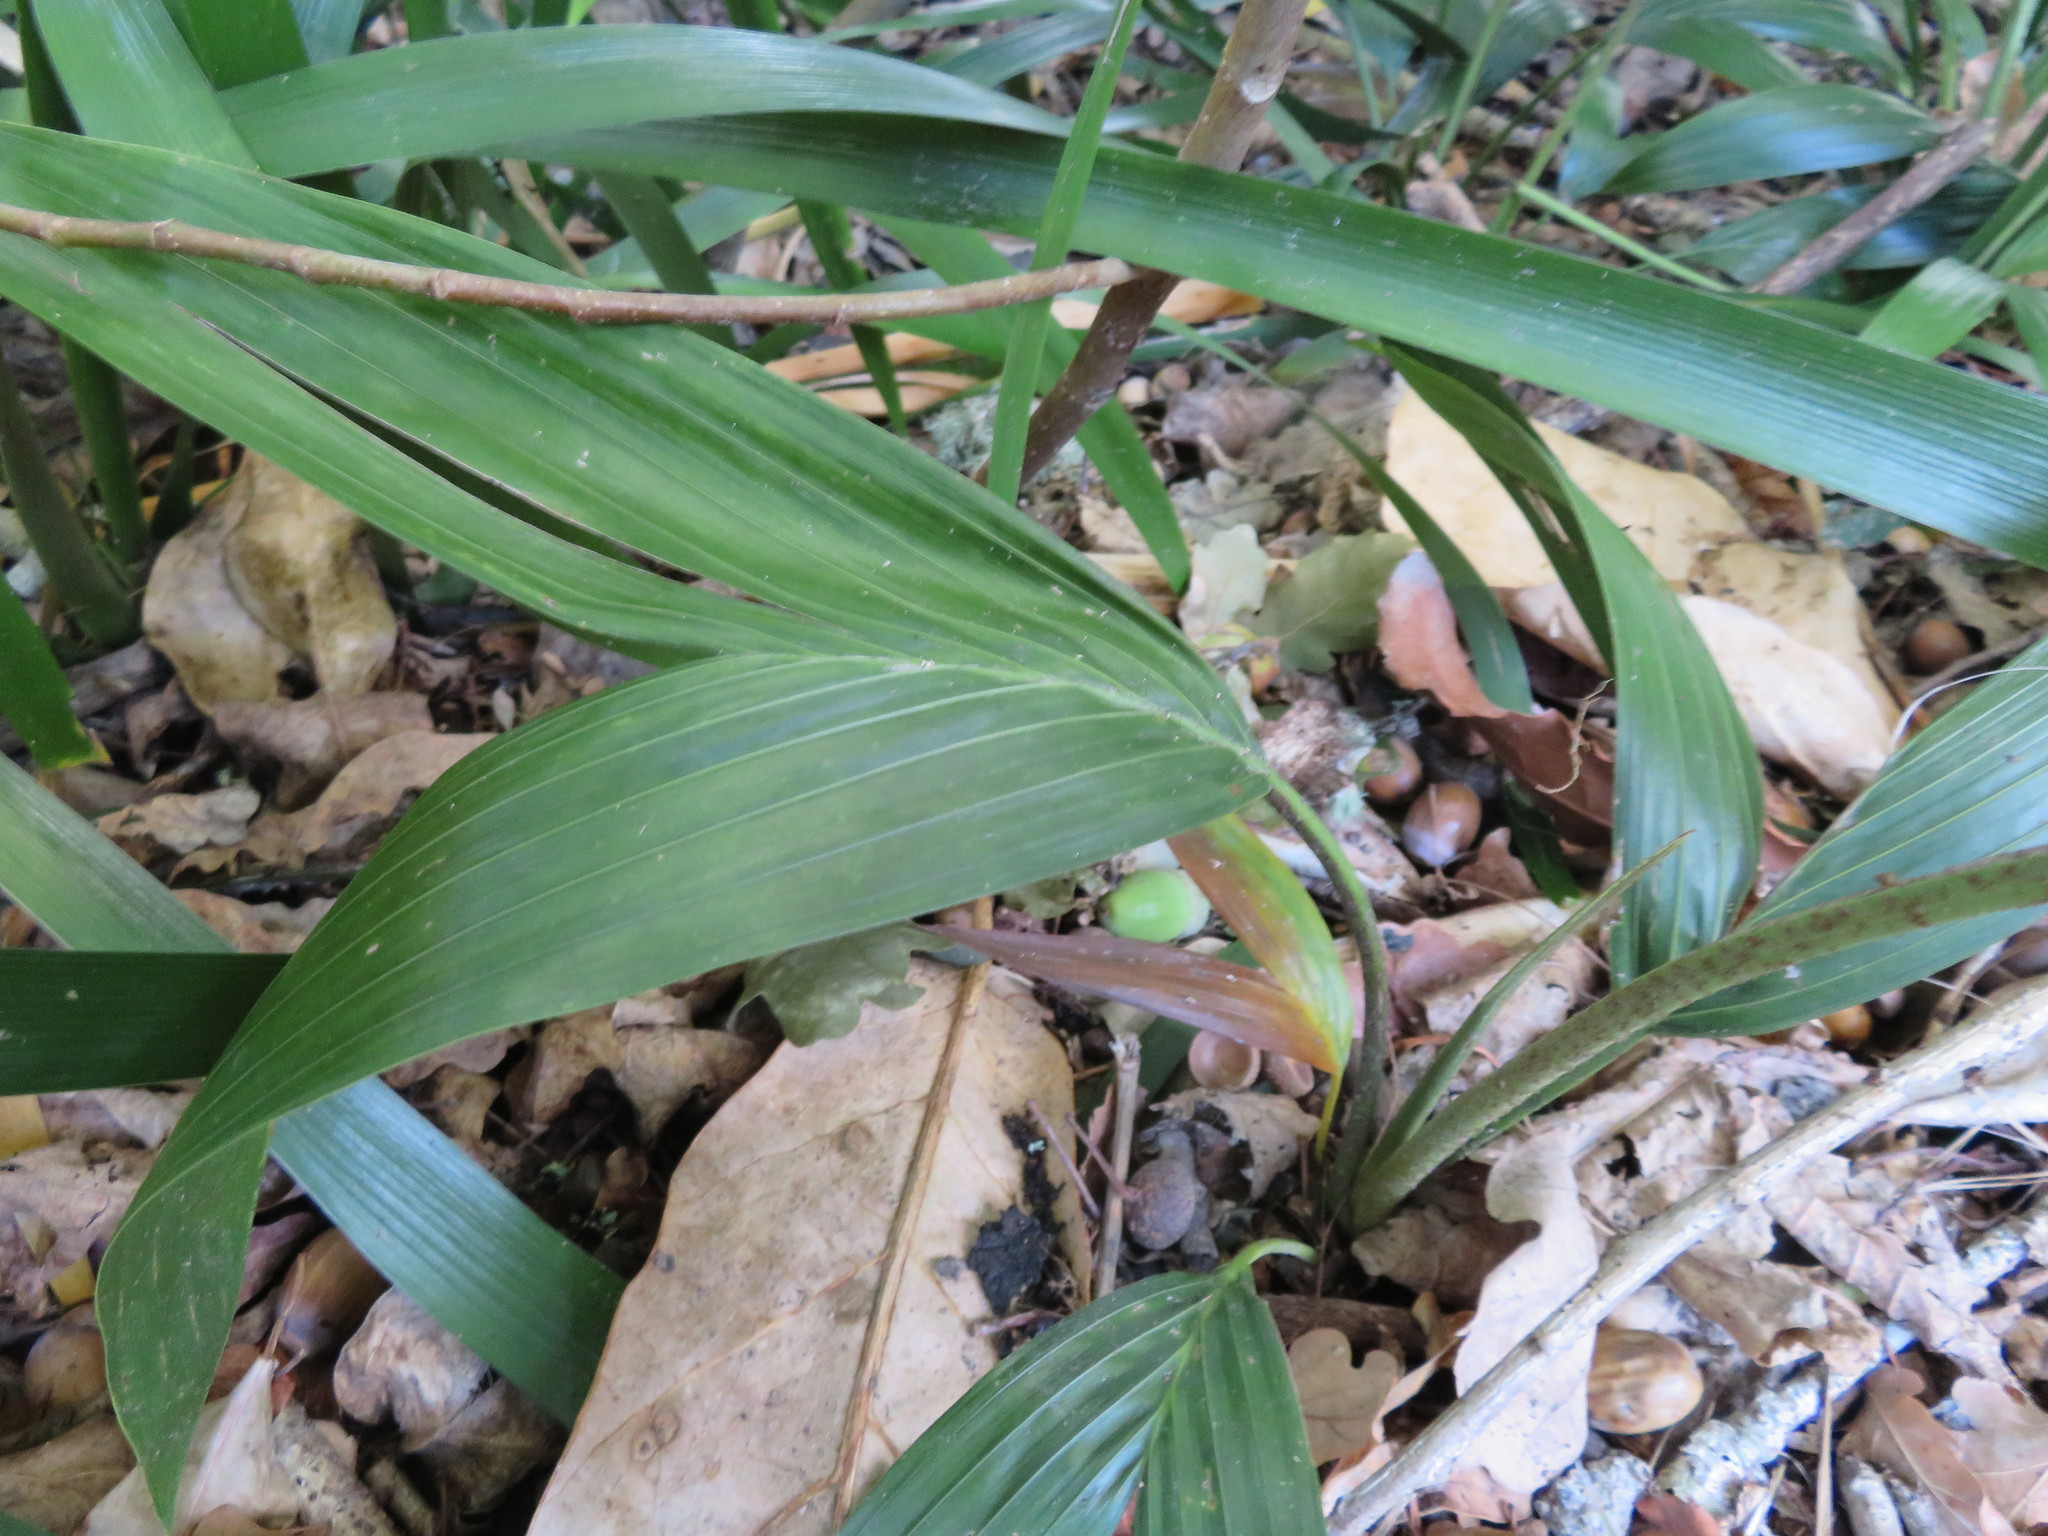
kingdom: Plantae
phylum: Tracheophyta
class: Liliopsida
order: Arecales
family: Arecaceae
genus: Archontophoenix
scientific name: Archontophoenix cunninghamiana
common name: Piccabeen bangalow palm
